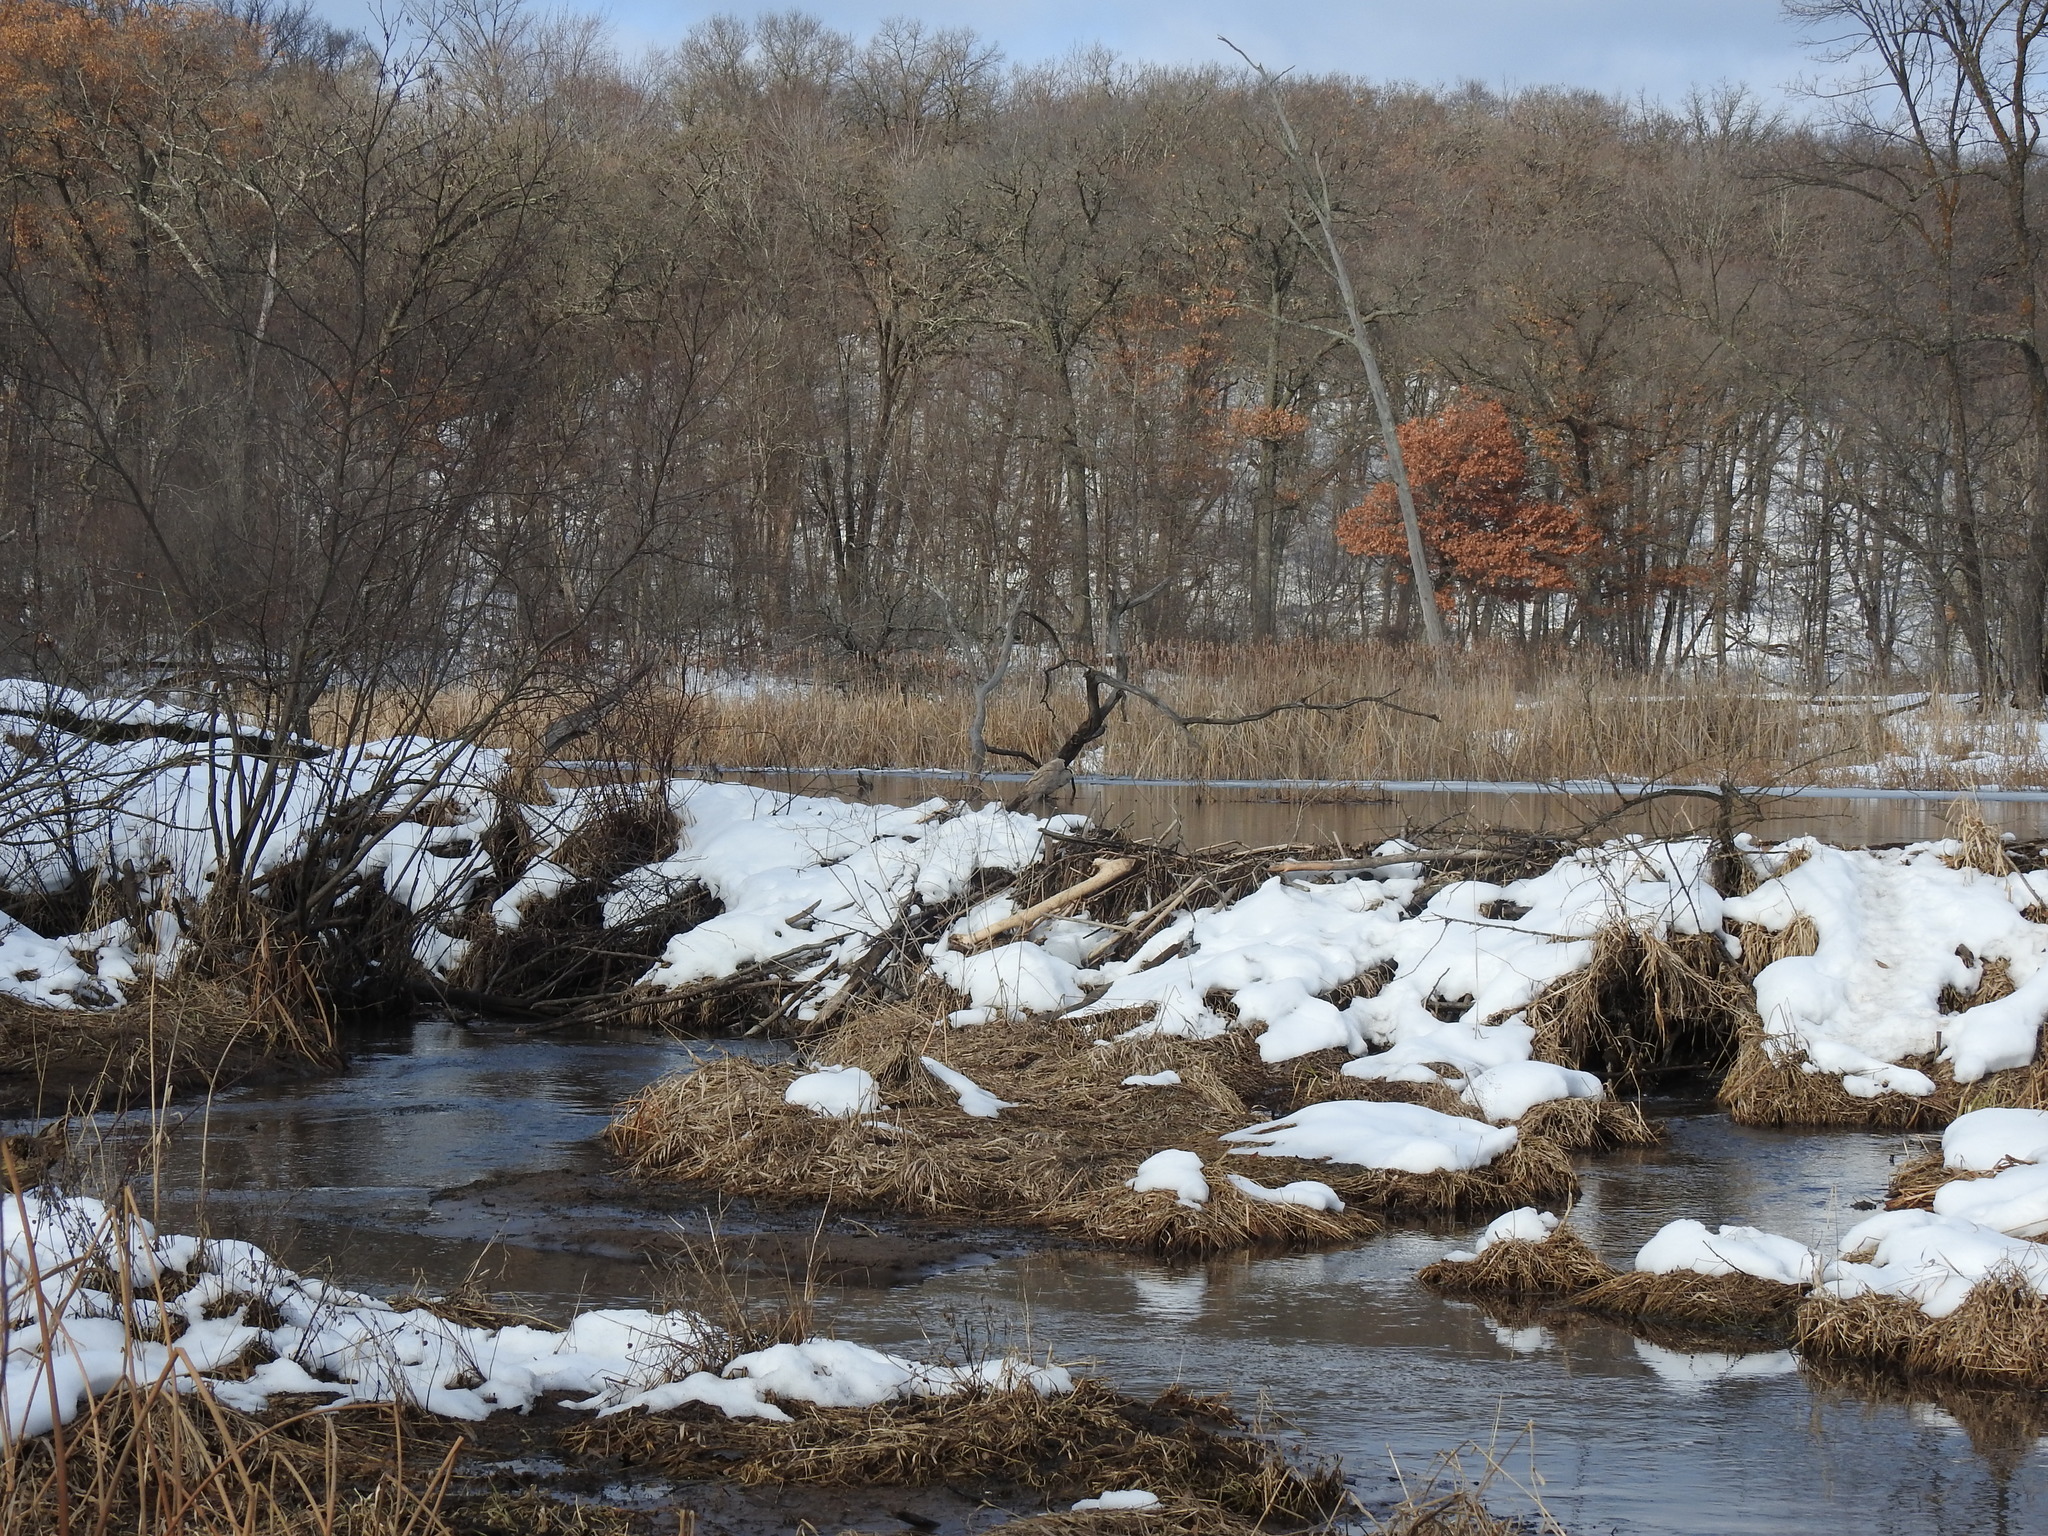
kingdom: Animalia
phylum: Chordata
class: Mammalia
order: Rodentia
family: Castoridae
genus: Castor
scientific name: Castor canadensis
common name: American beaver
